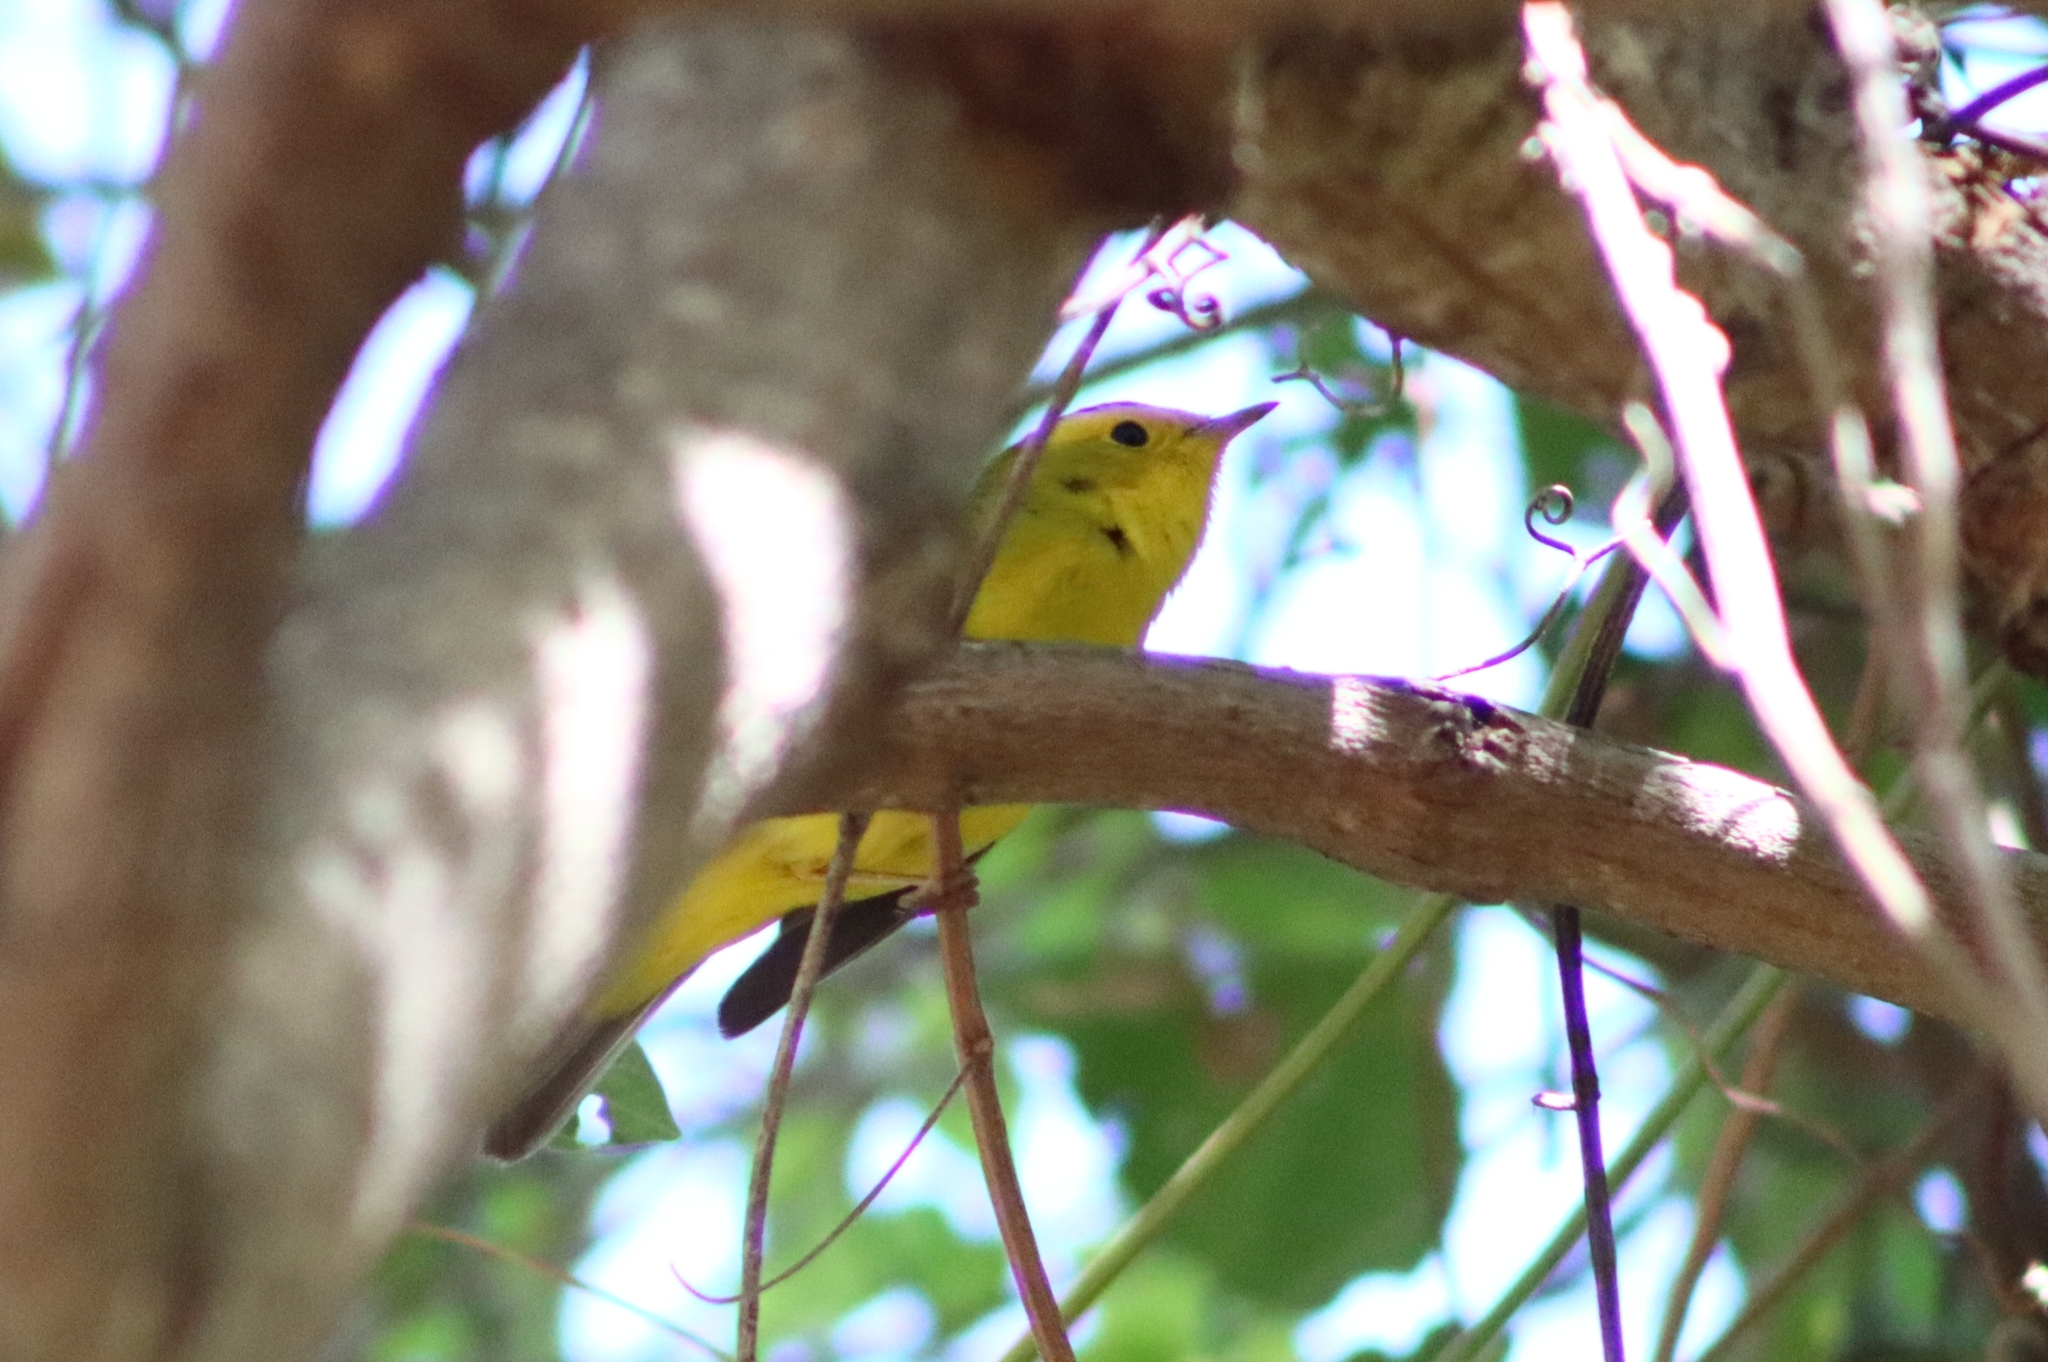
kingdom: Animalia
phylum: Chordata
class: Aves
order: Passeriformes
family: Parulidae
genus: Cardellina
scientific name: Cardellina pusilla
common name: Wilson's warbler
